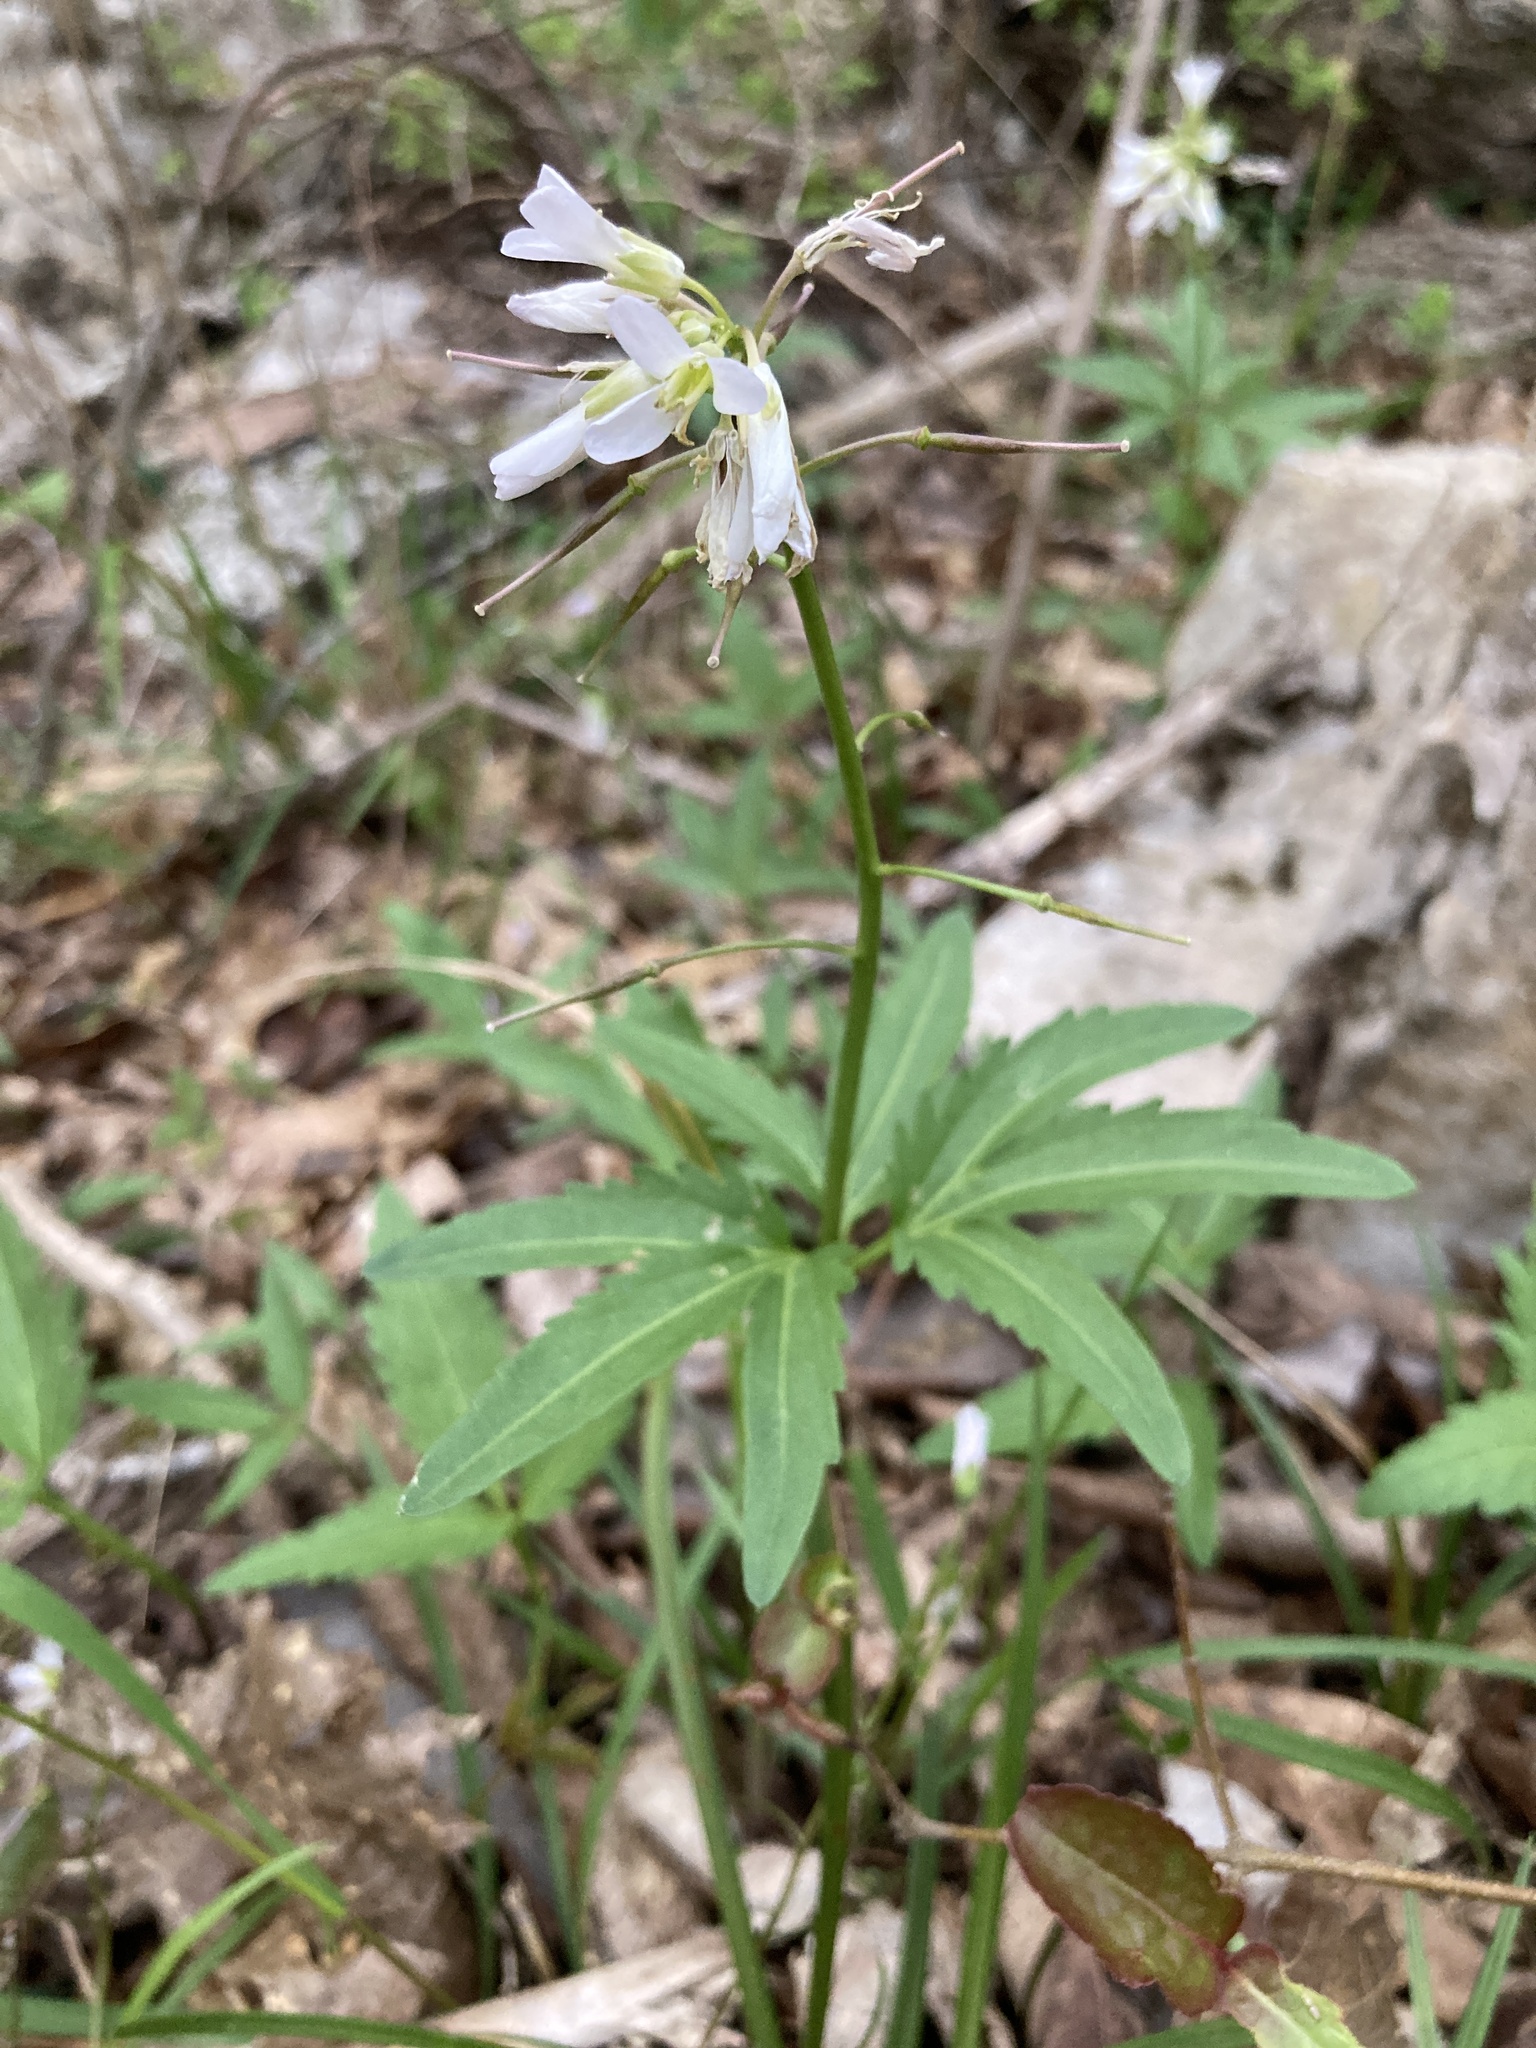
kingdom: Plantae
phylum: Tracheophyta
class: Magnoliopsida
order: Brassicales
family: Brassicaceae
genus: Cardamine
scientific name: Cardamine concatenata
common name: Cut-leaf toothcup
